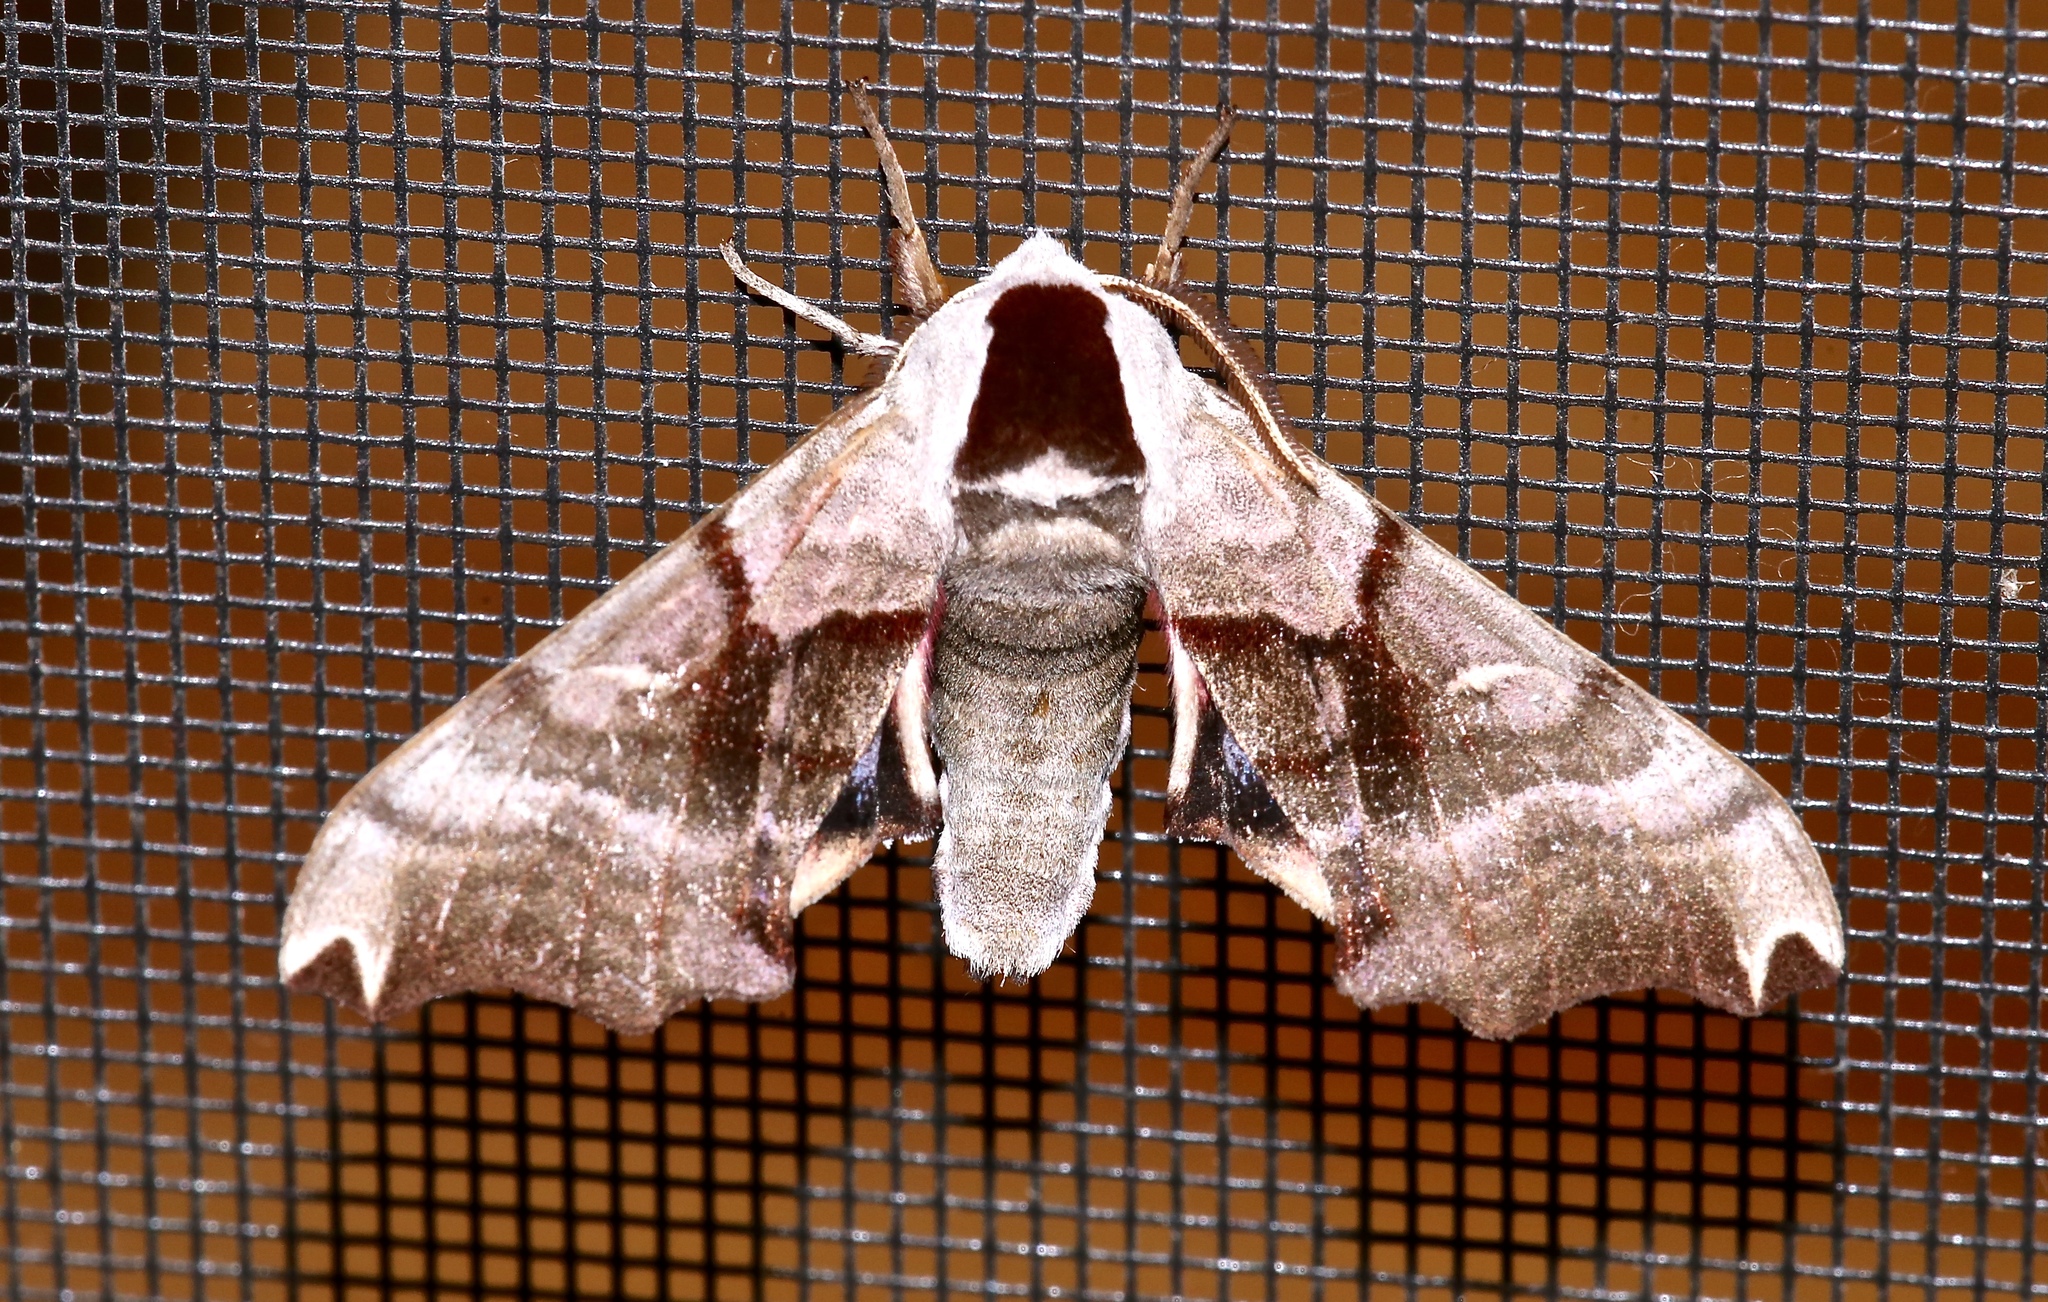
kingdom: Animalia
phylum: Arthropoda
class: Insecta
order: Lepidoptera
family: Sphingidae
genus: Smerinthus
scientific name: Smerinthus jamaicensis
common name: Twin spotted sphinx
